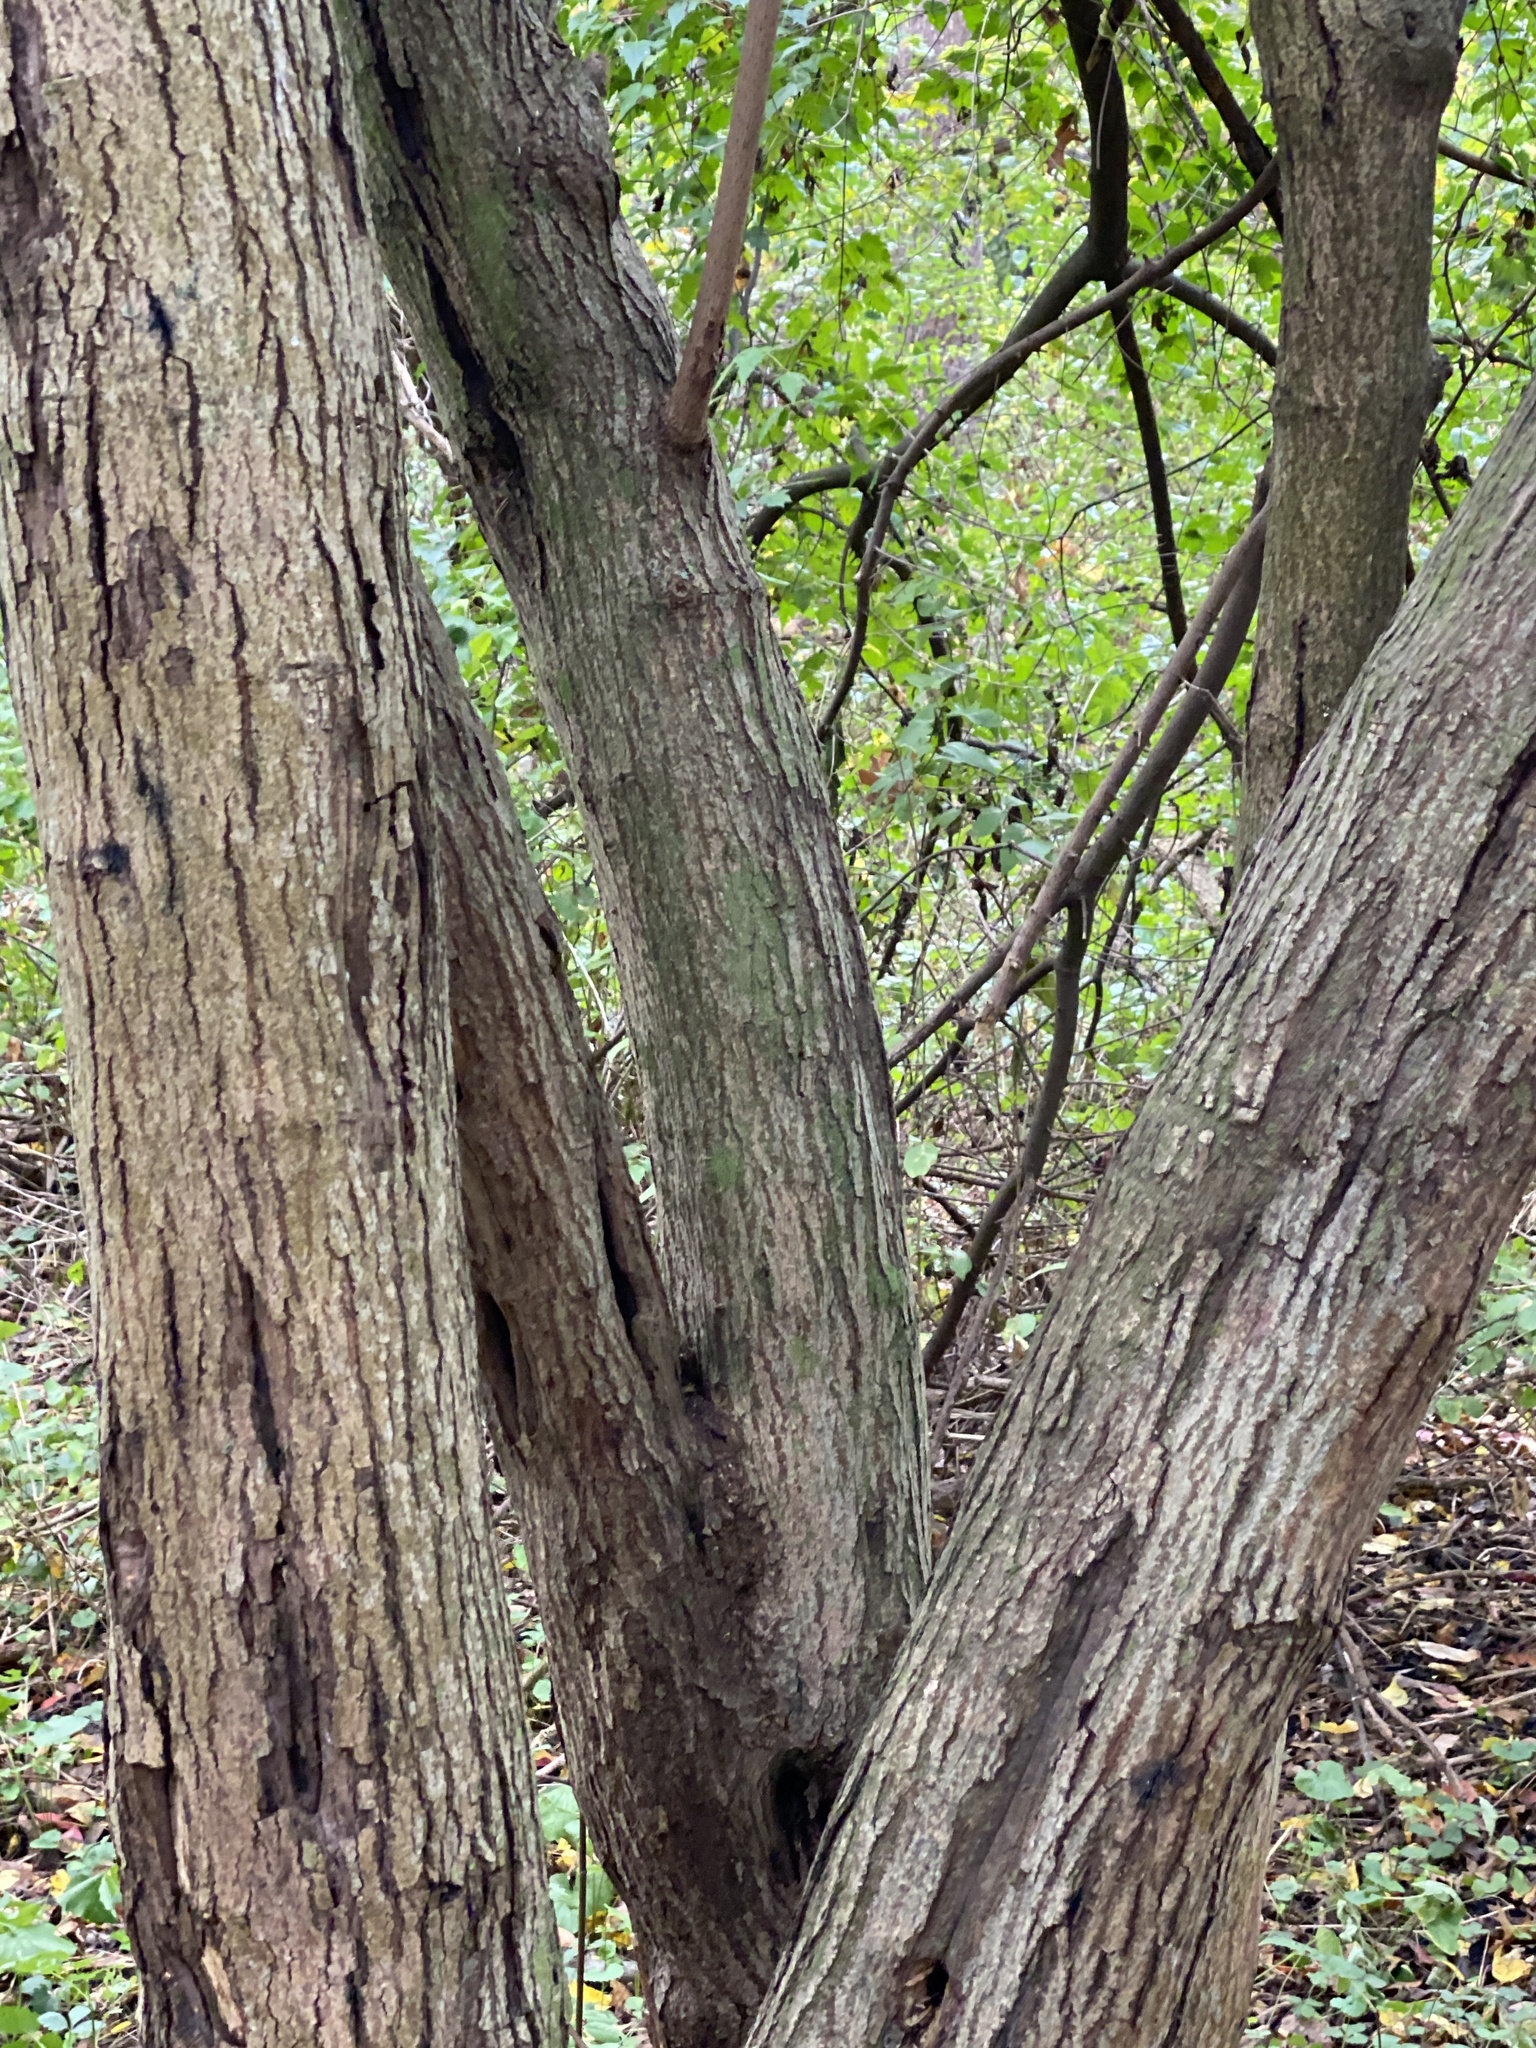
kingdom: Plantae
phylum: Tracheophyta
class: Magnoliopsida
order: Sapindales
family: Sapindaceae
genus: Acer
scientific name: Acer tataricum
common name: Tartar maple
